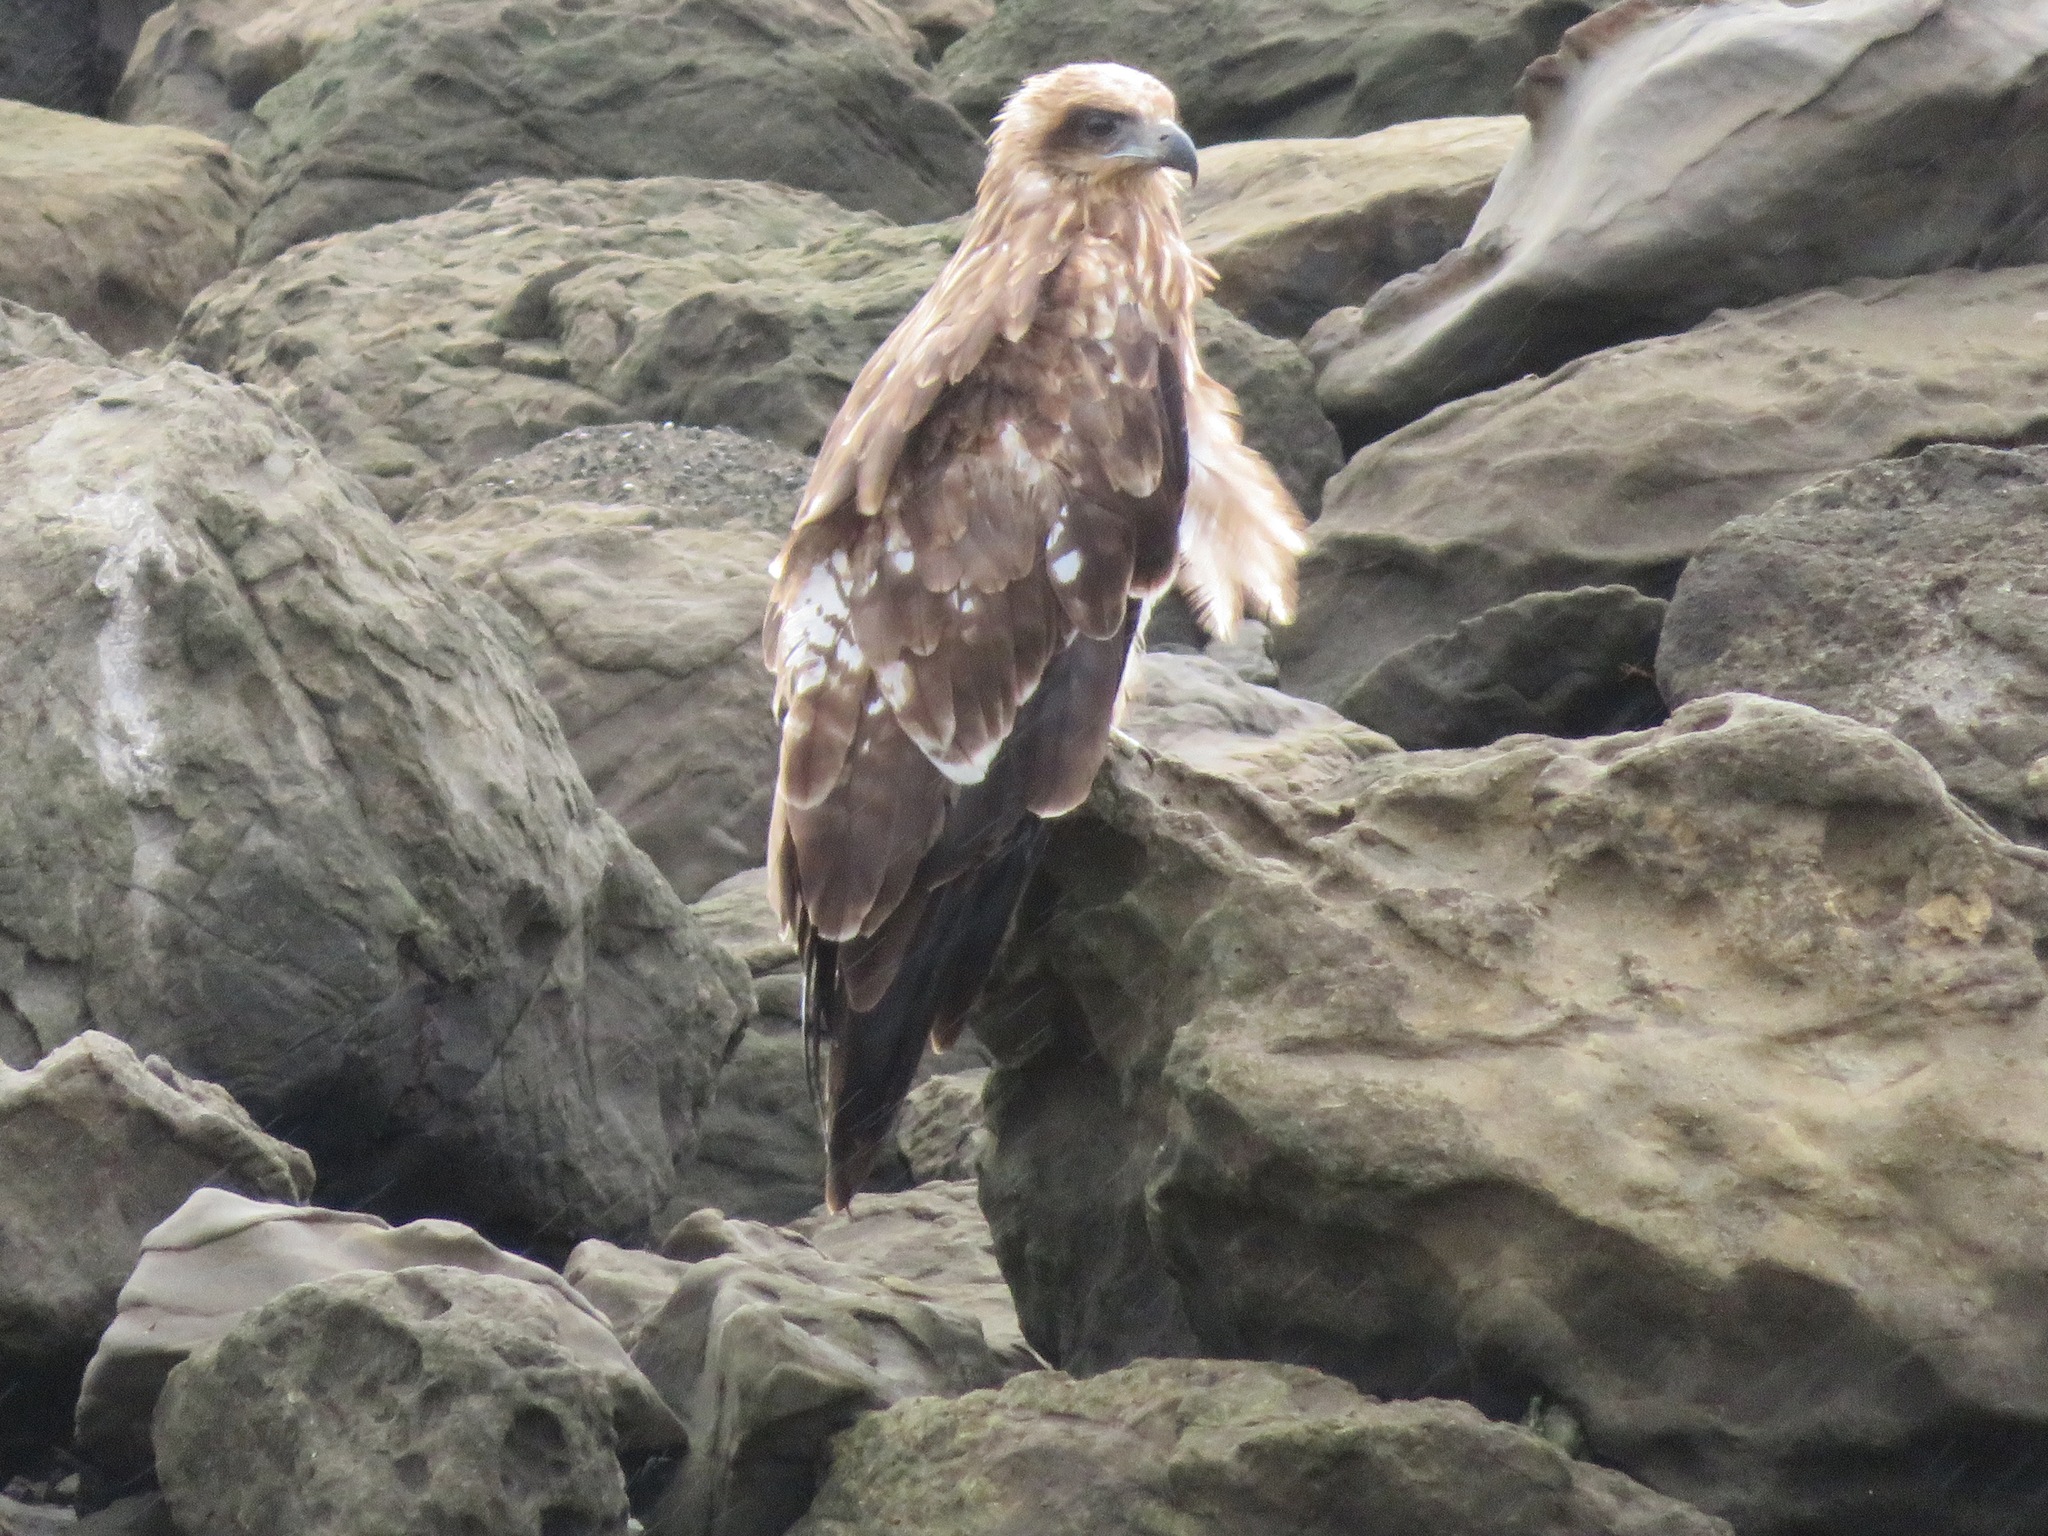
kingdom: Animalia
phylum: Chordata
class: Aves
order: Accipitriformes
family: Accipitridae
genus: Milvus
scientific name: Milvus migrans
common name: Black kite
